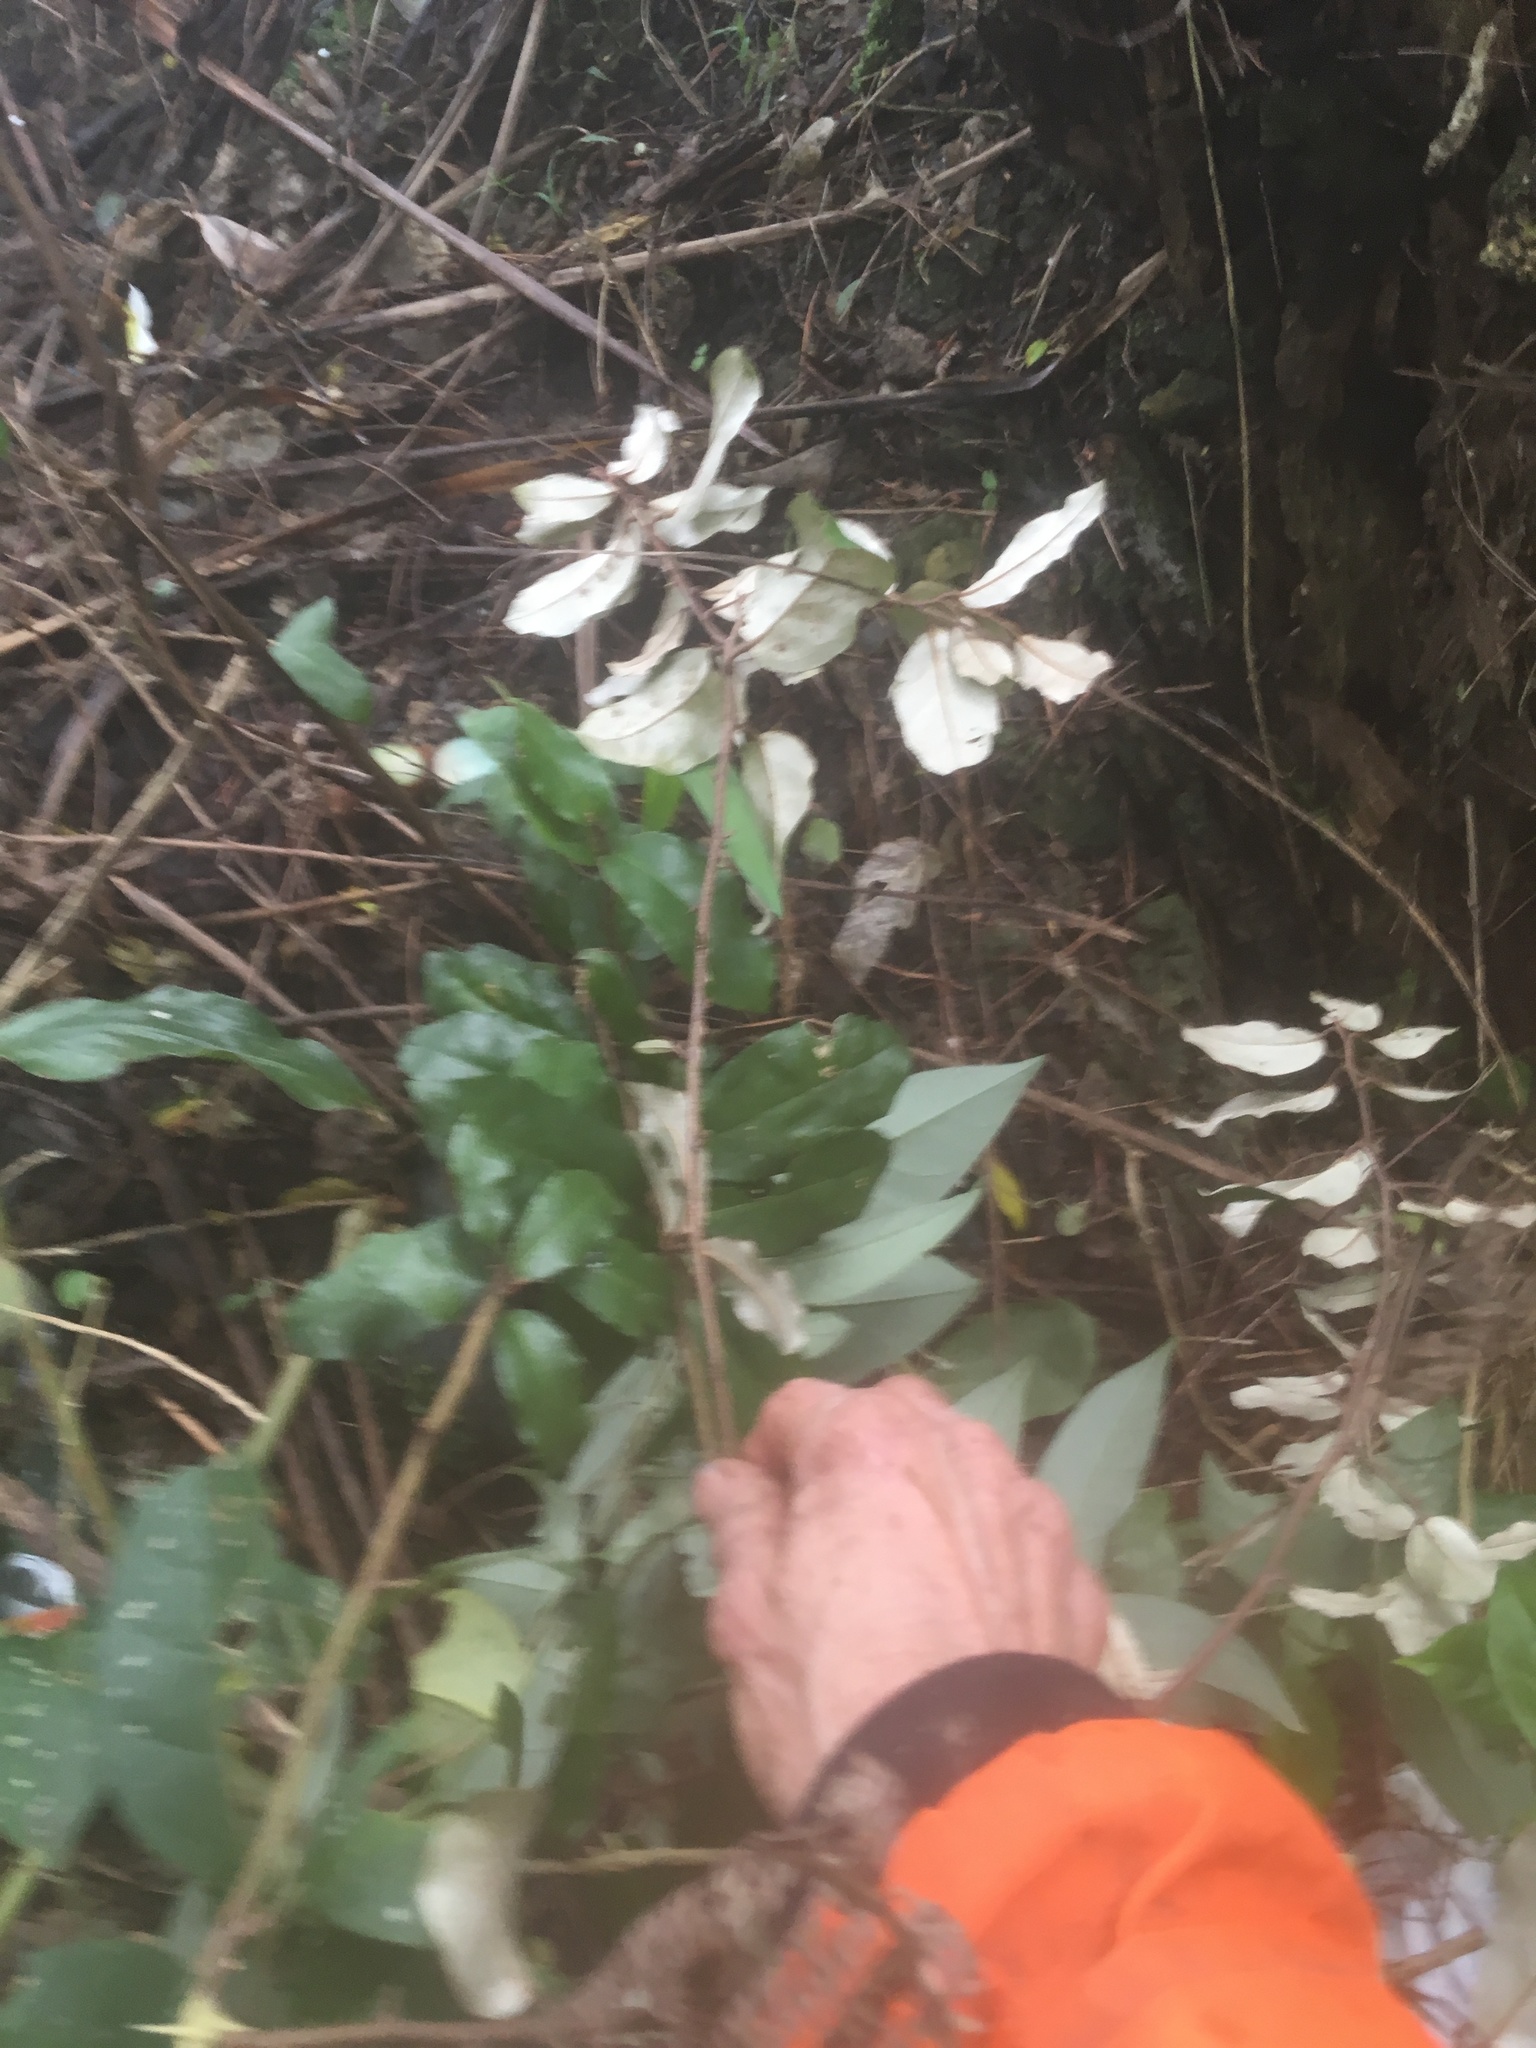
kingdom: Plantae
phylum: Tracheophyta
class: Magnoliopsida
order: Rosales
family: Elaeagnaceae
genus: Elaeagnus
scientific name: Elaeagnus reflexa
